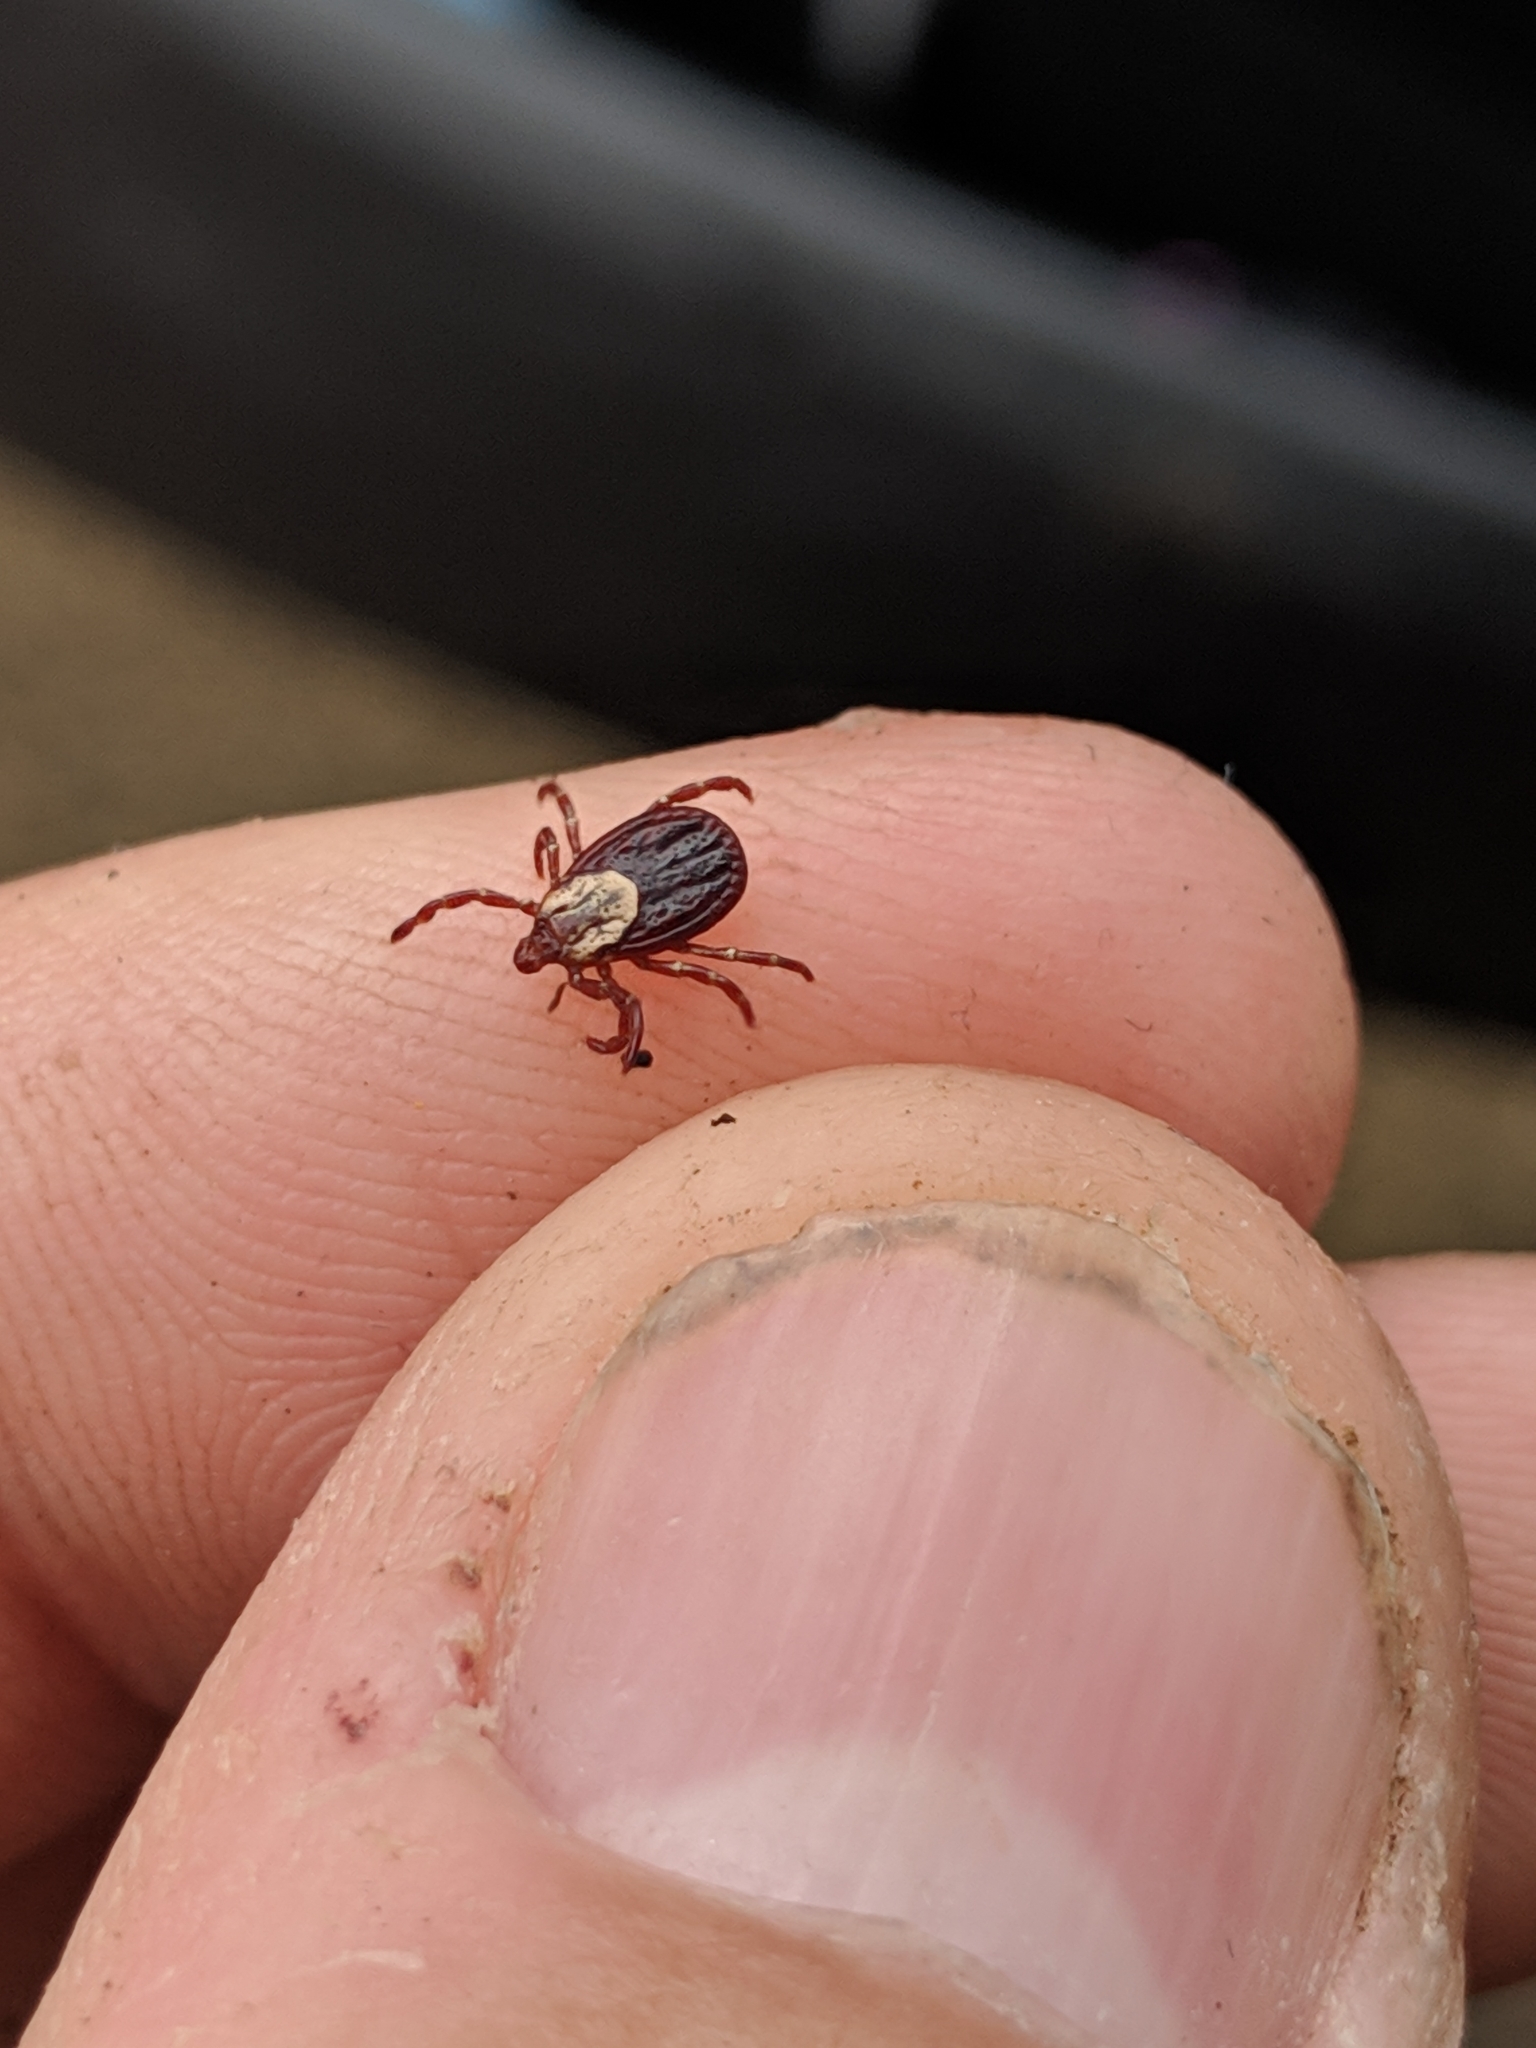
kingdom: Animalia
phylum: Arthropoda
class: Arachnida
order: Ixodida
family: Ixodidae
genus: Dermacentor
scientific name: Dermacentor variabilis
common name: American dog tick
